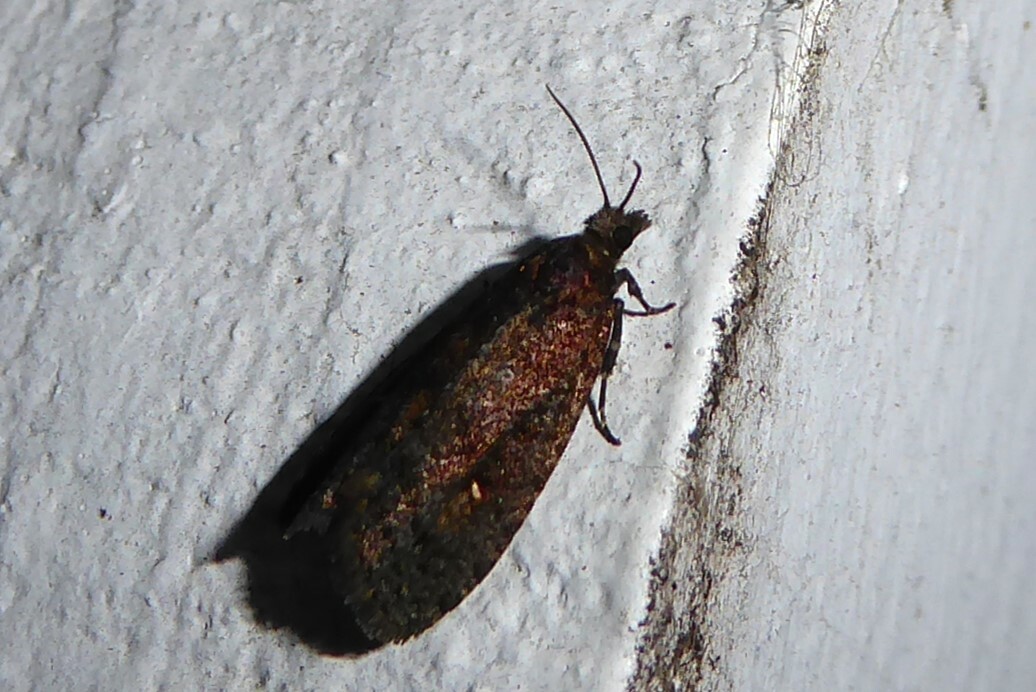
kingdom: Animalia
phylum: Arthropoda
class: Insecta
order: Lepidoptera
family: Tortricidae
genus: Cryptaspasma
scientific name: Cryptaspasma querula
